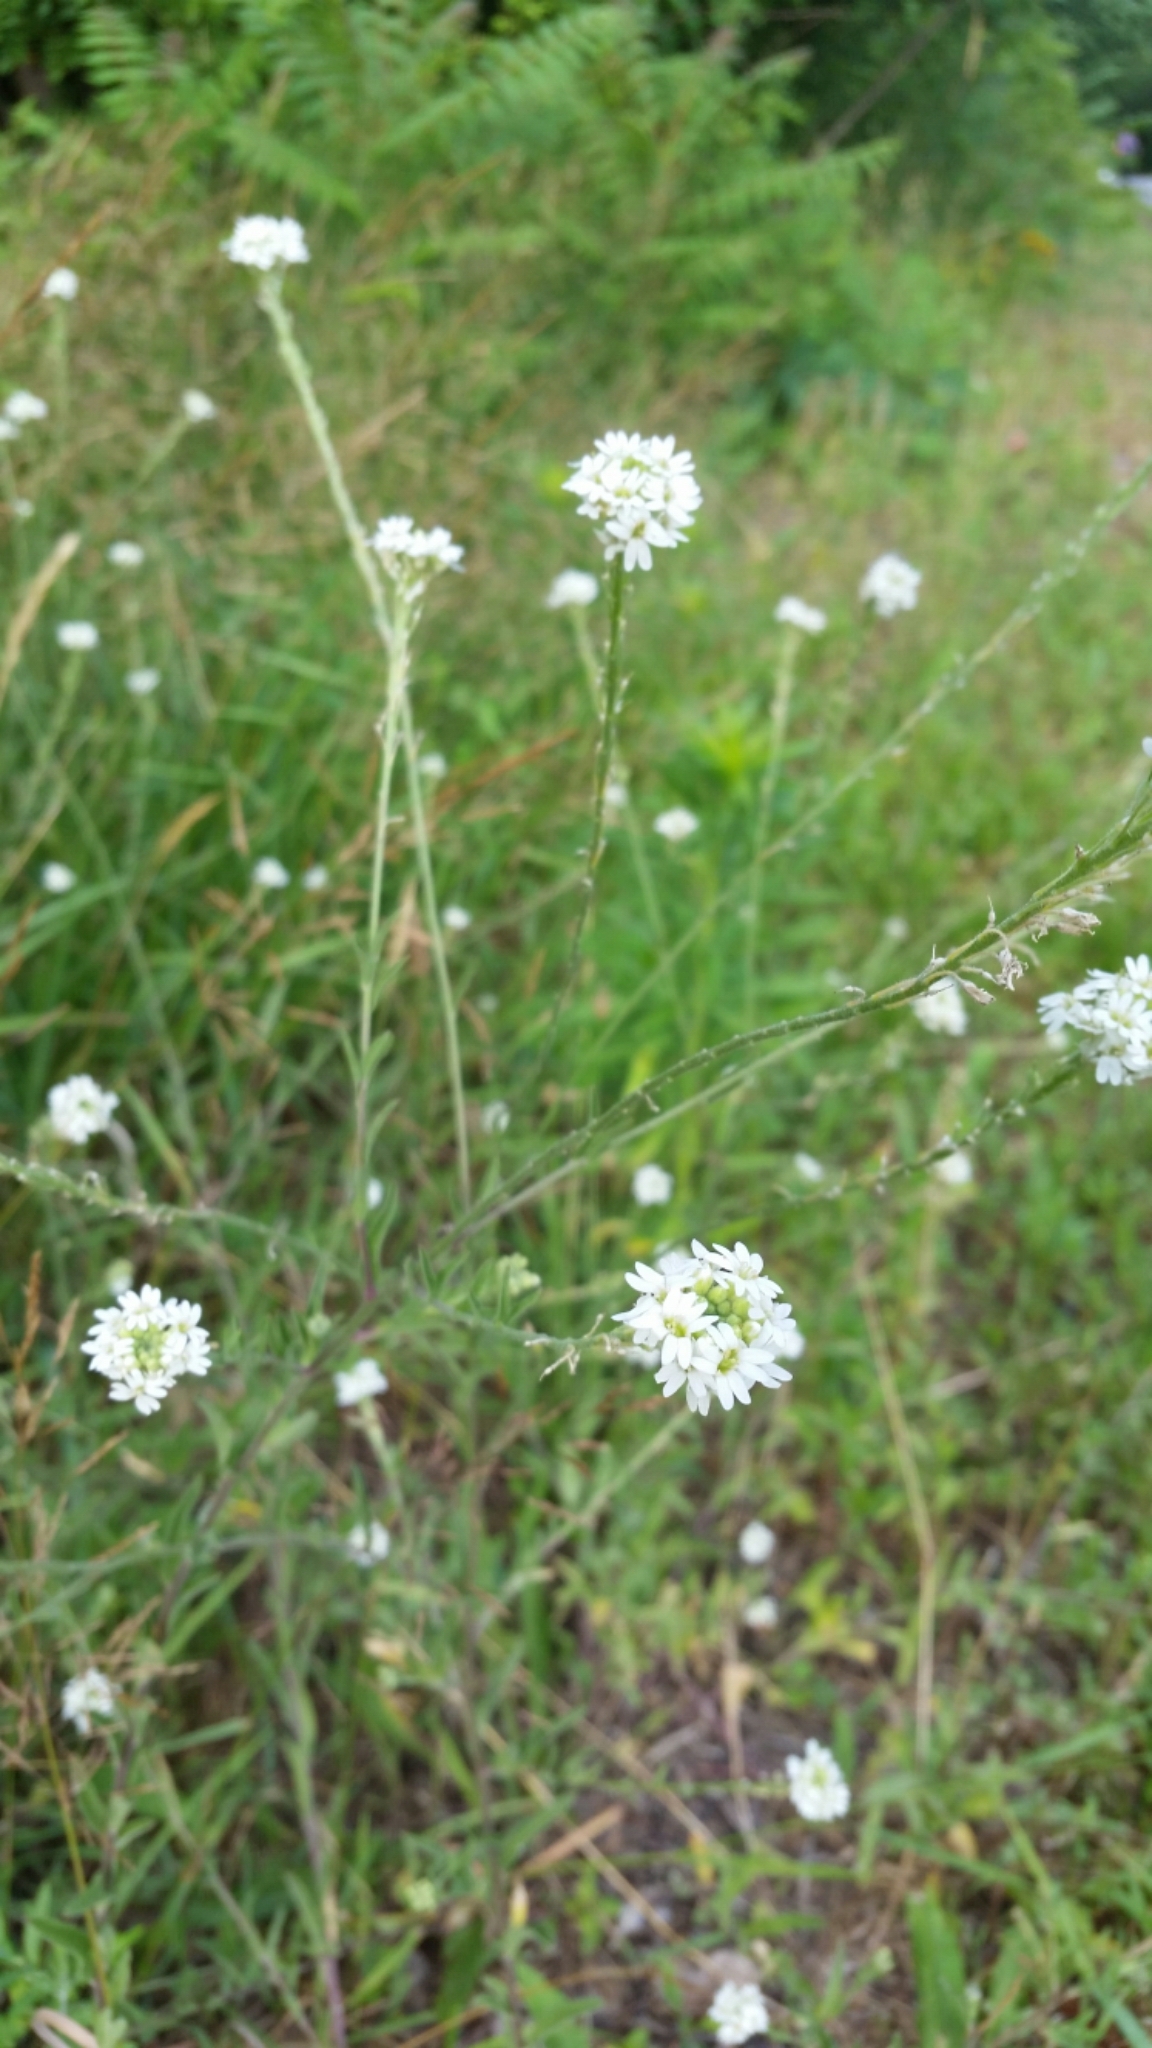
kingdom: Plantae
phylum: Tracheophyta
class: Magnoliopsida
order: Brassicales
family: Brassicaceae
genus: Berteroa
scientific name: Berteroa incana
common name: Hoary alison
